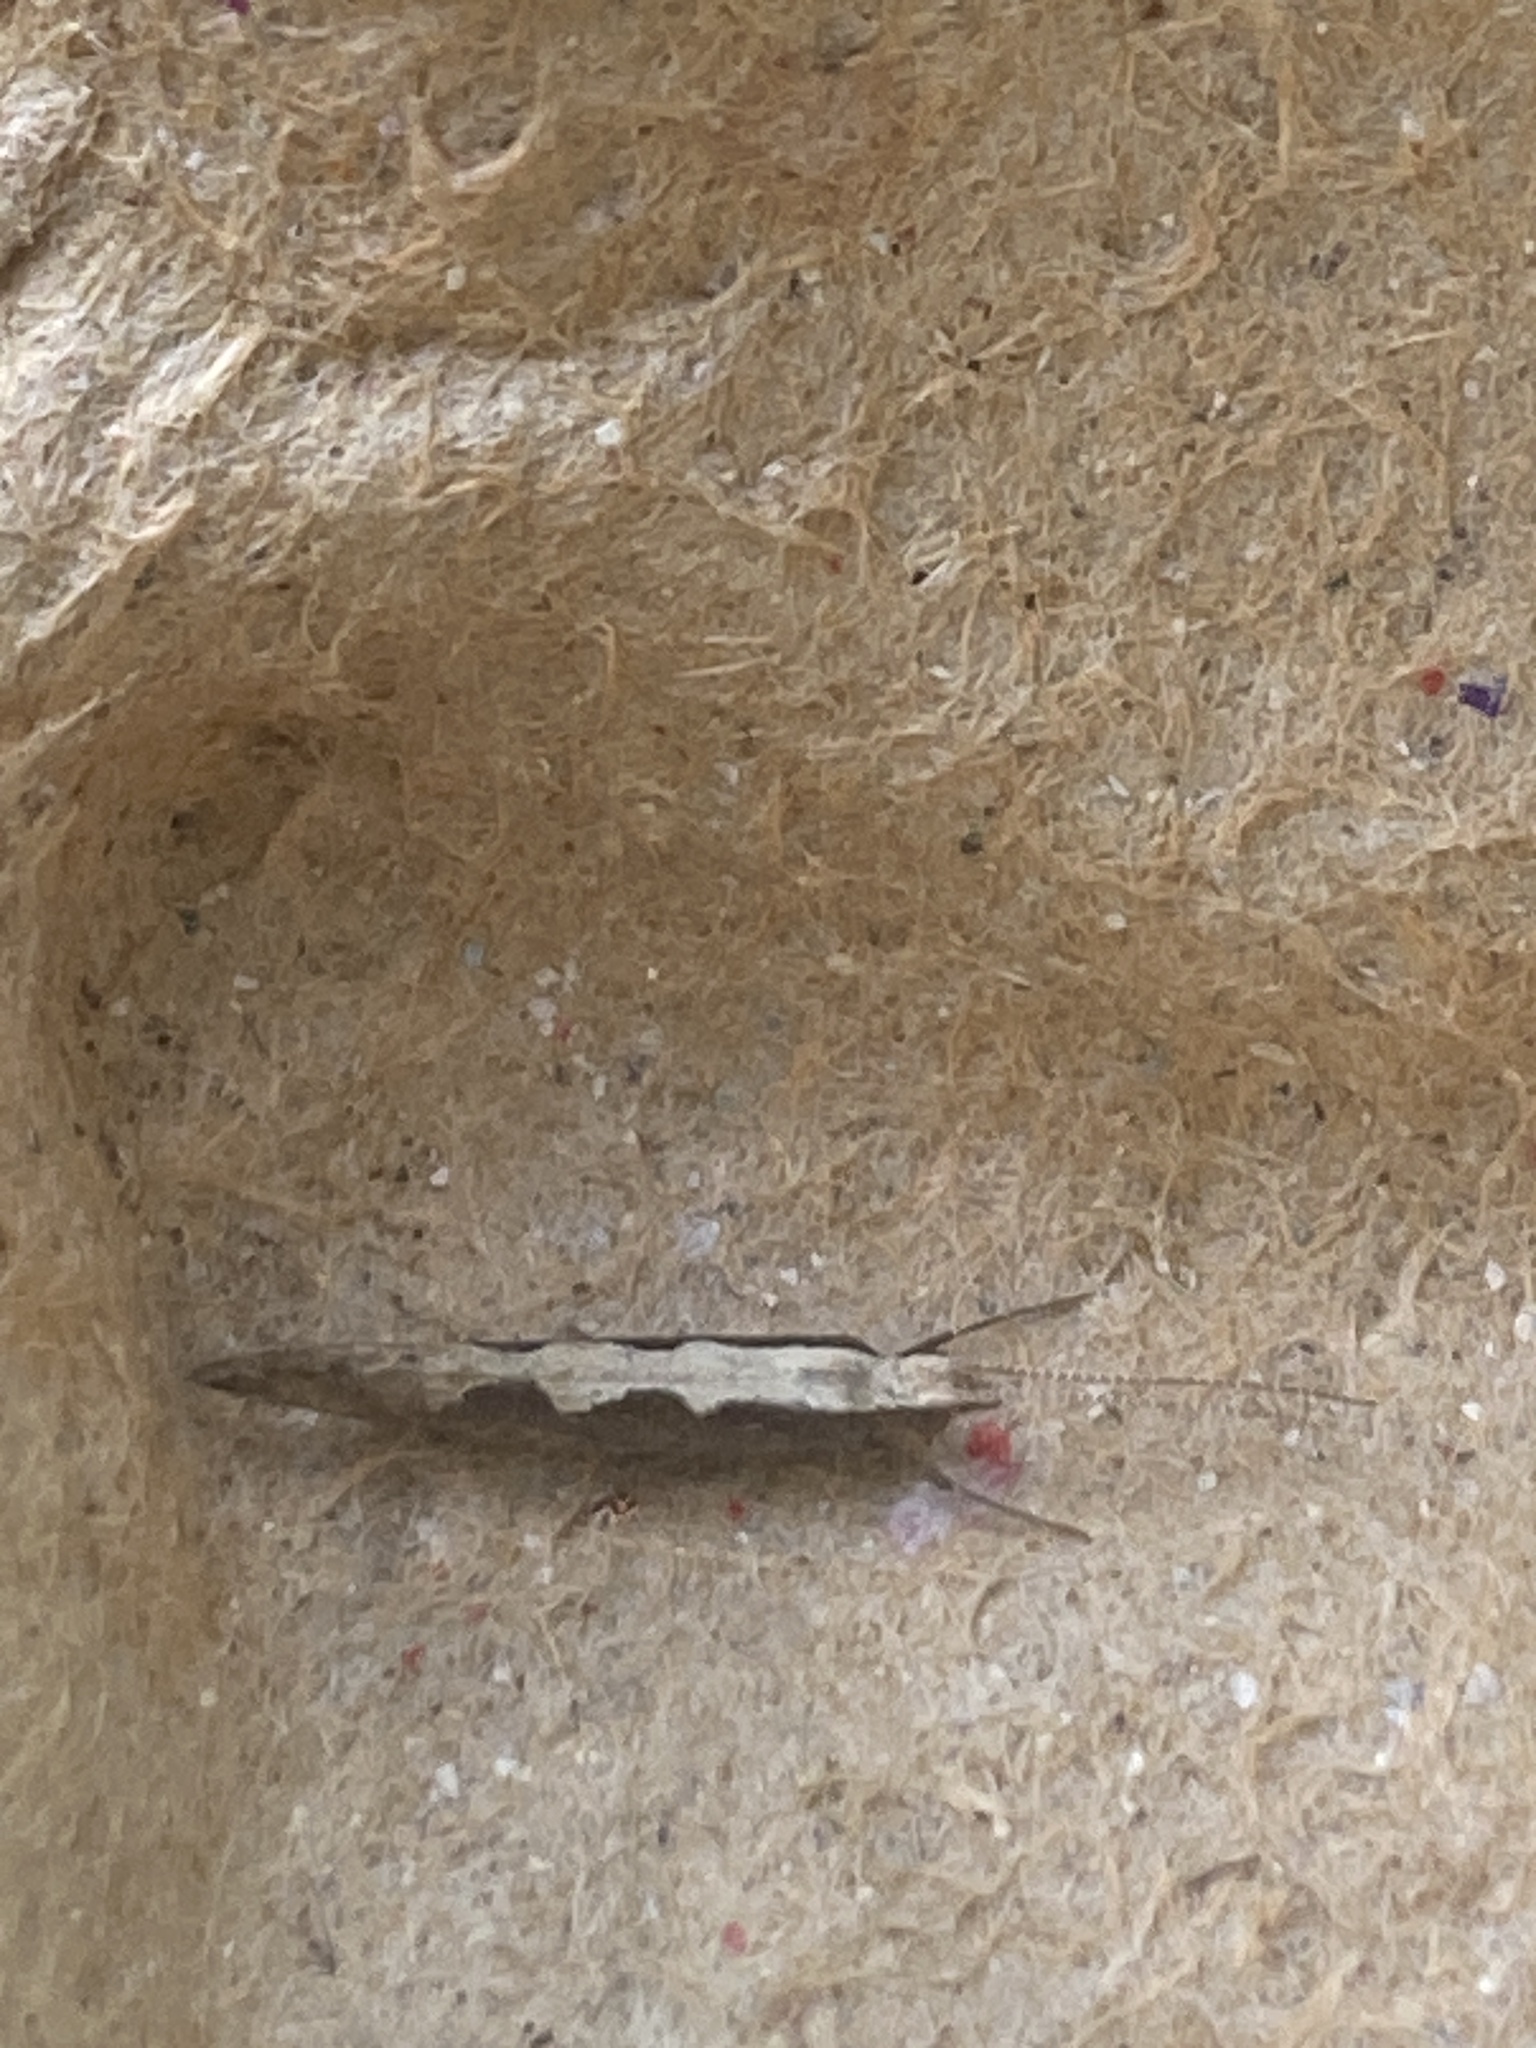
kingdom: Animalia
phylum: Arthropoda
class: Insecta
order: Lepidoptera
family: Plutellidae
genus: Plutella
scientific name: Plutella xylostella
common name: Diamond-back moth
